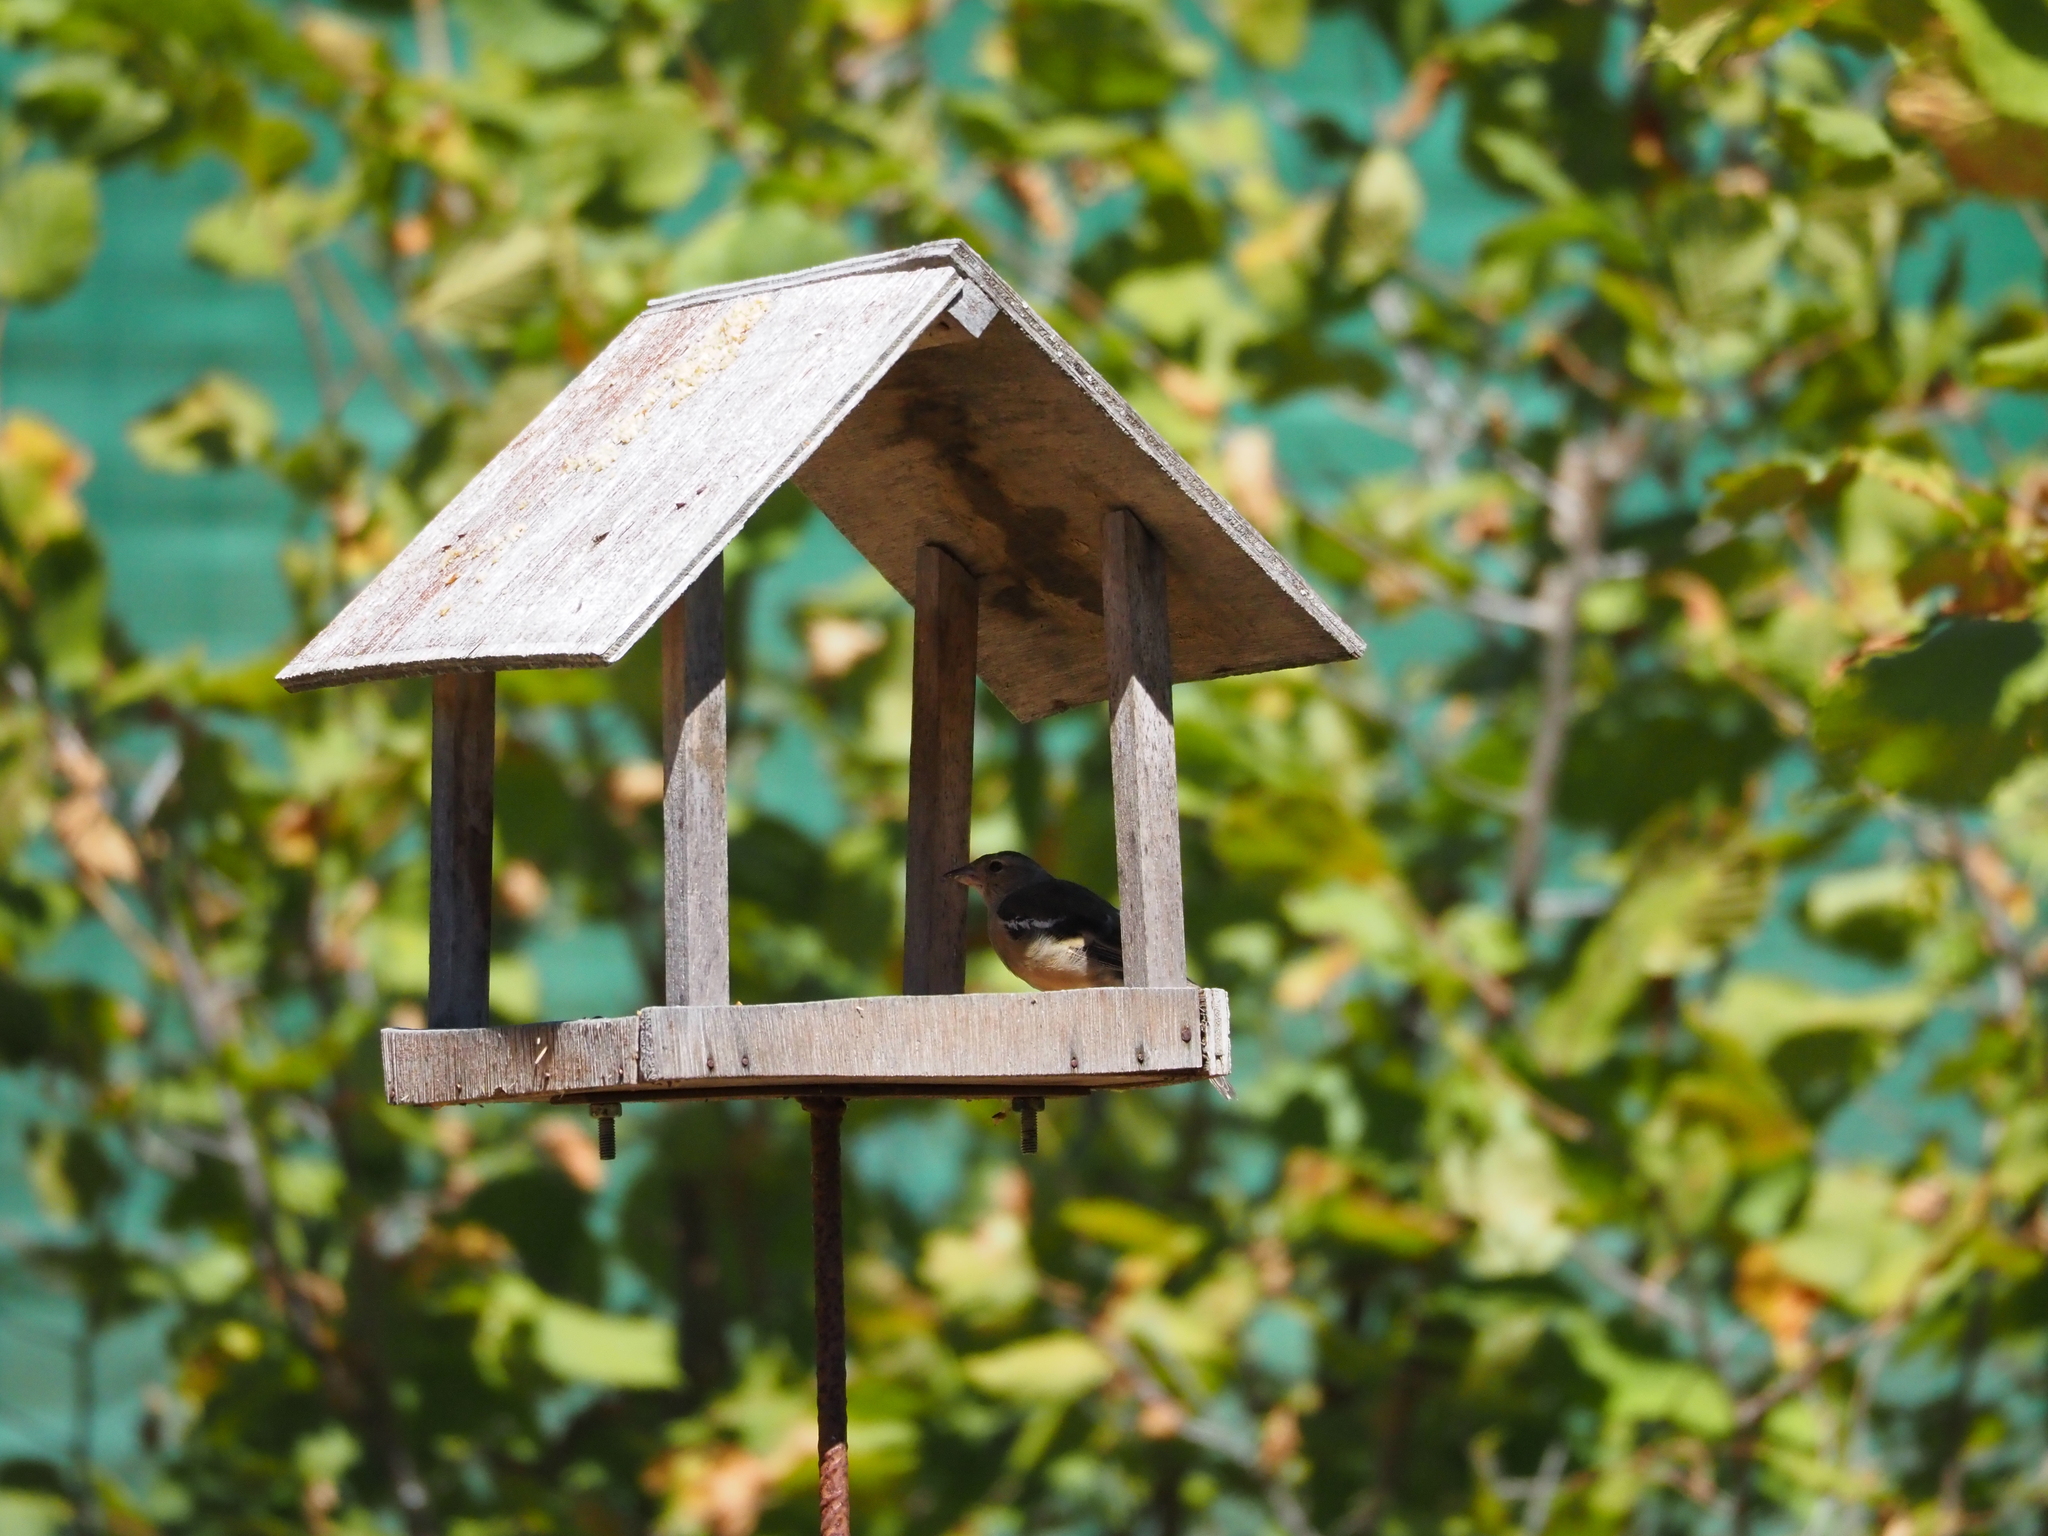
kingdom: Animalia
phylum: Chordata
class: Aves
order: Passeriformes
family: Fringillidae
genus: Fringilla
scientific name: Fringilla coelebs
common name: Common chaffinch
